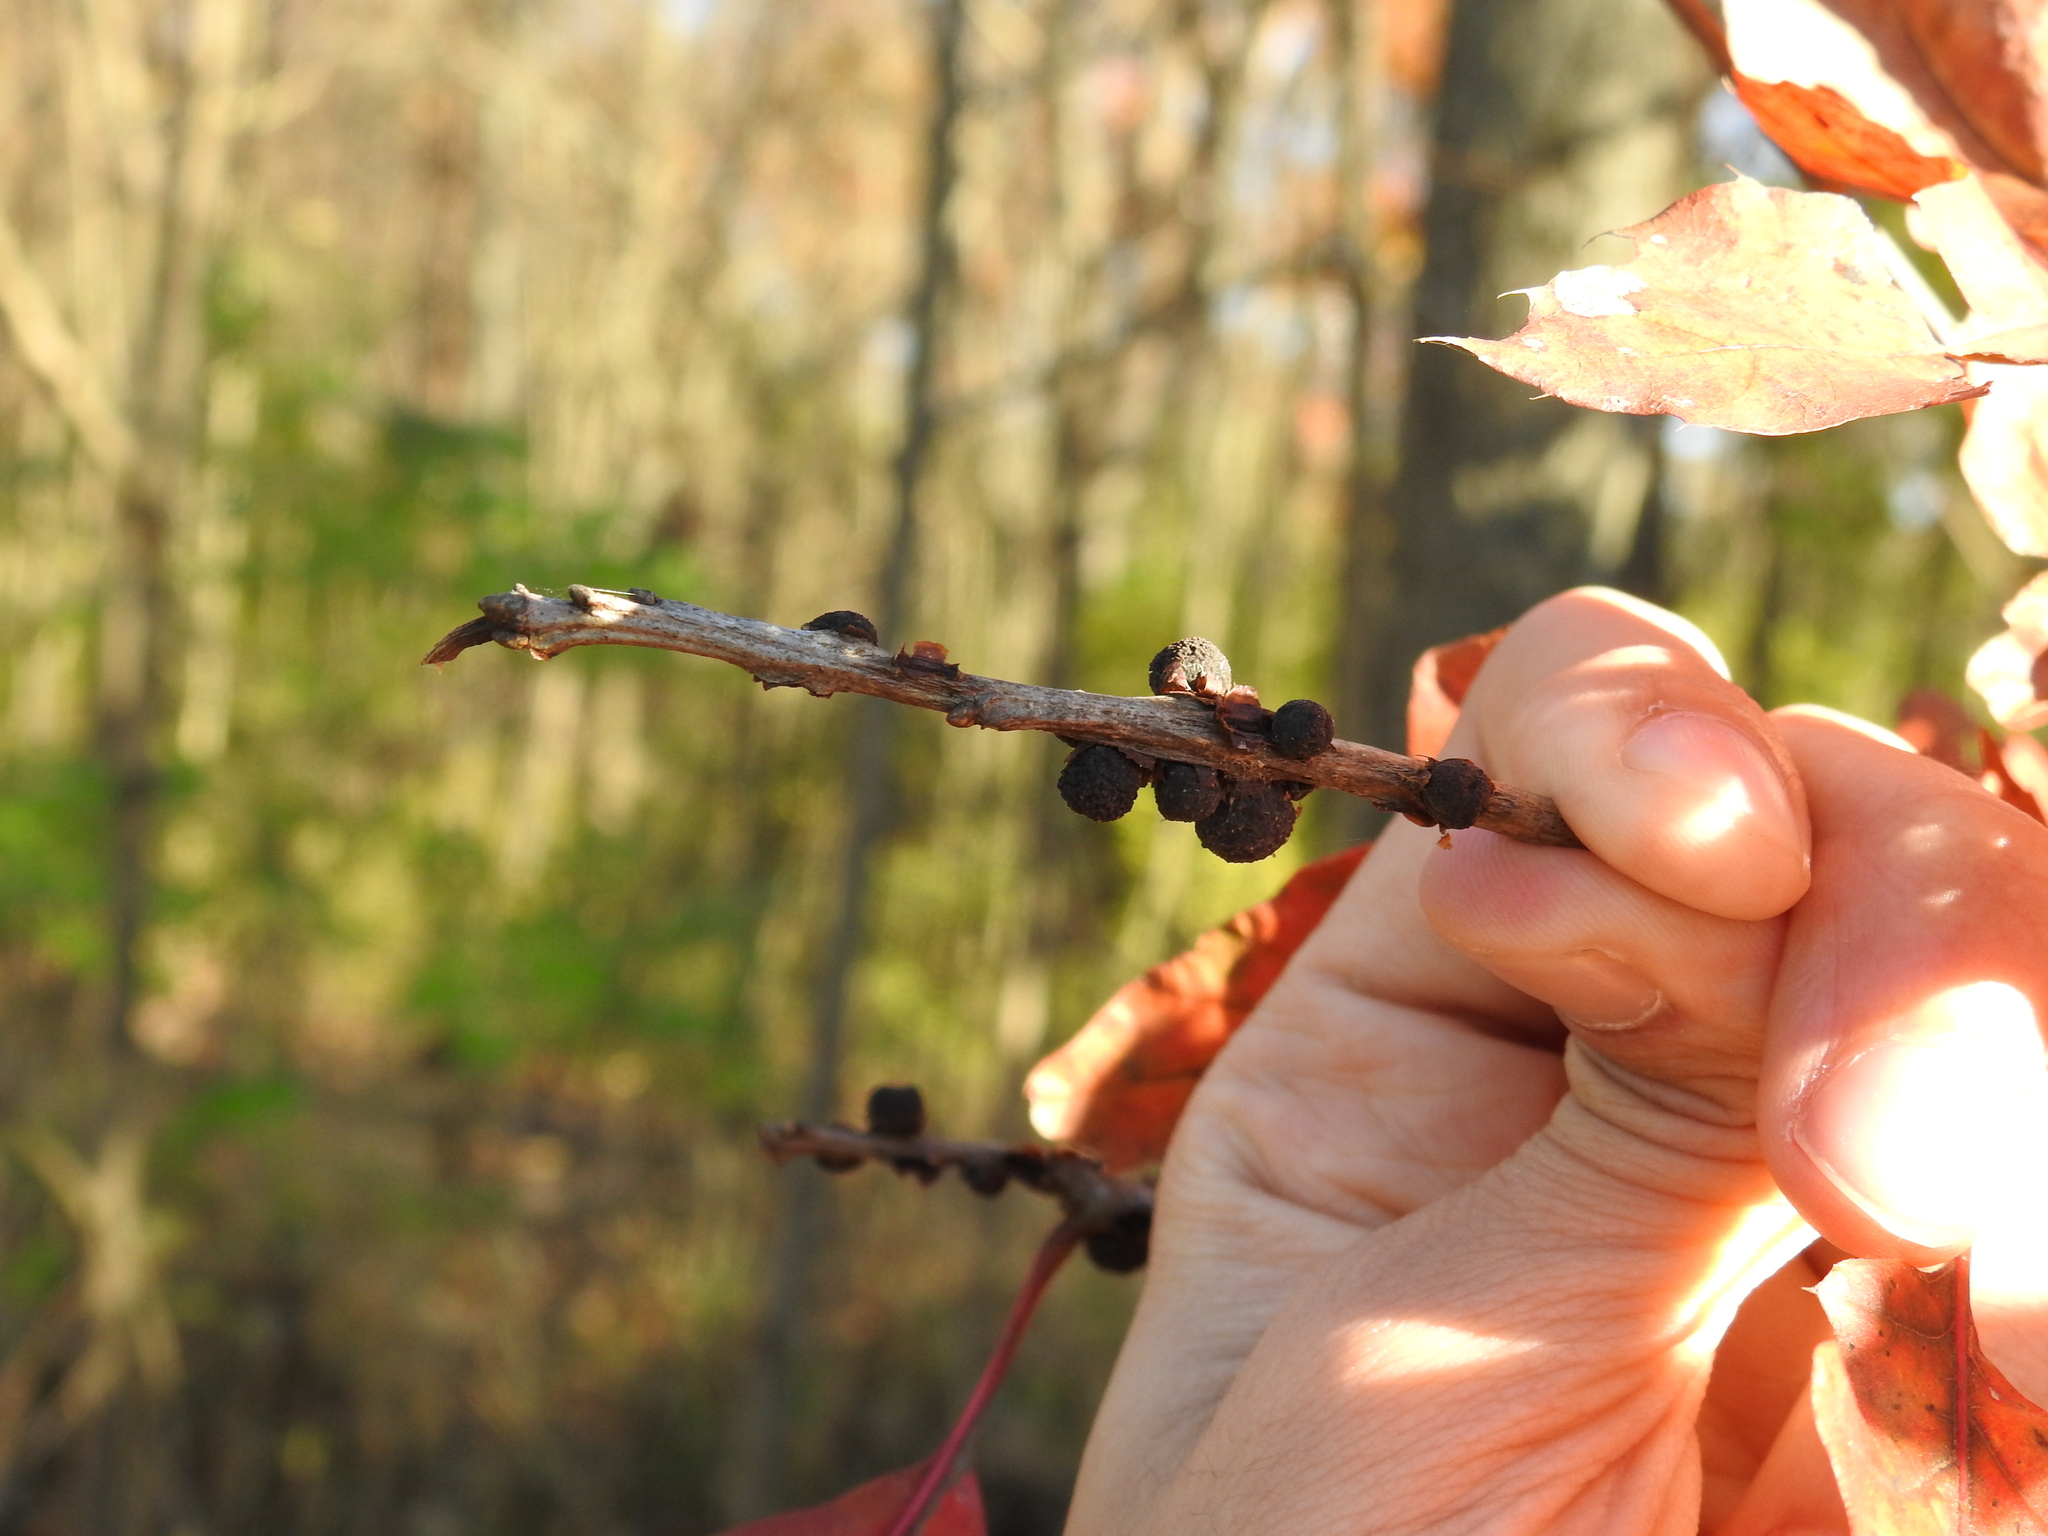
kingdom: Animalia
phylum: Arthropoda
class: Insecta
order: Hymenoptera
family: Cynipidae
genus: Callirhytis
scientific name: Callirhytis
